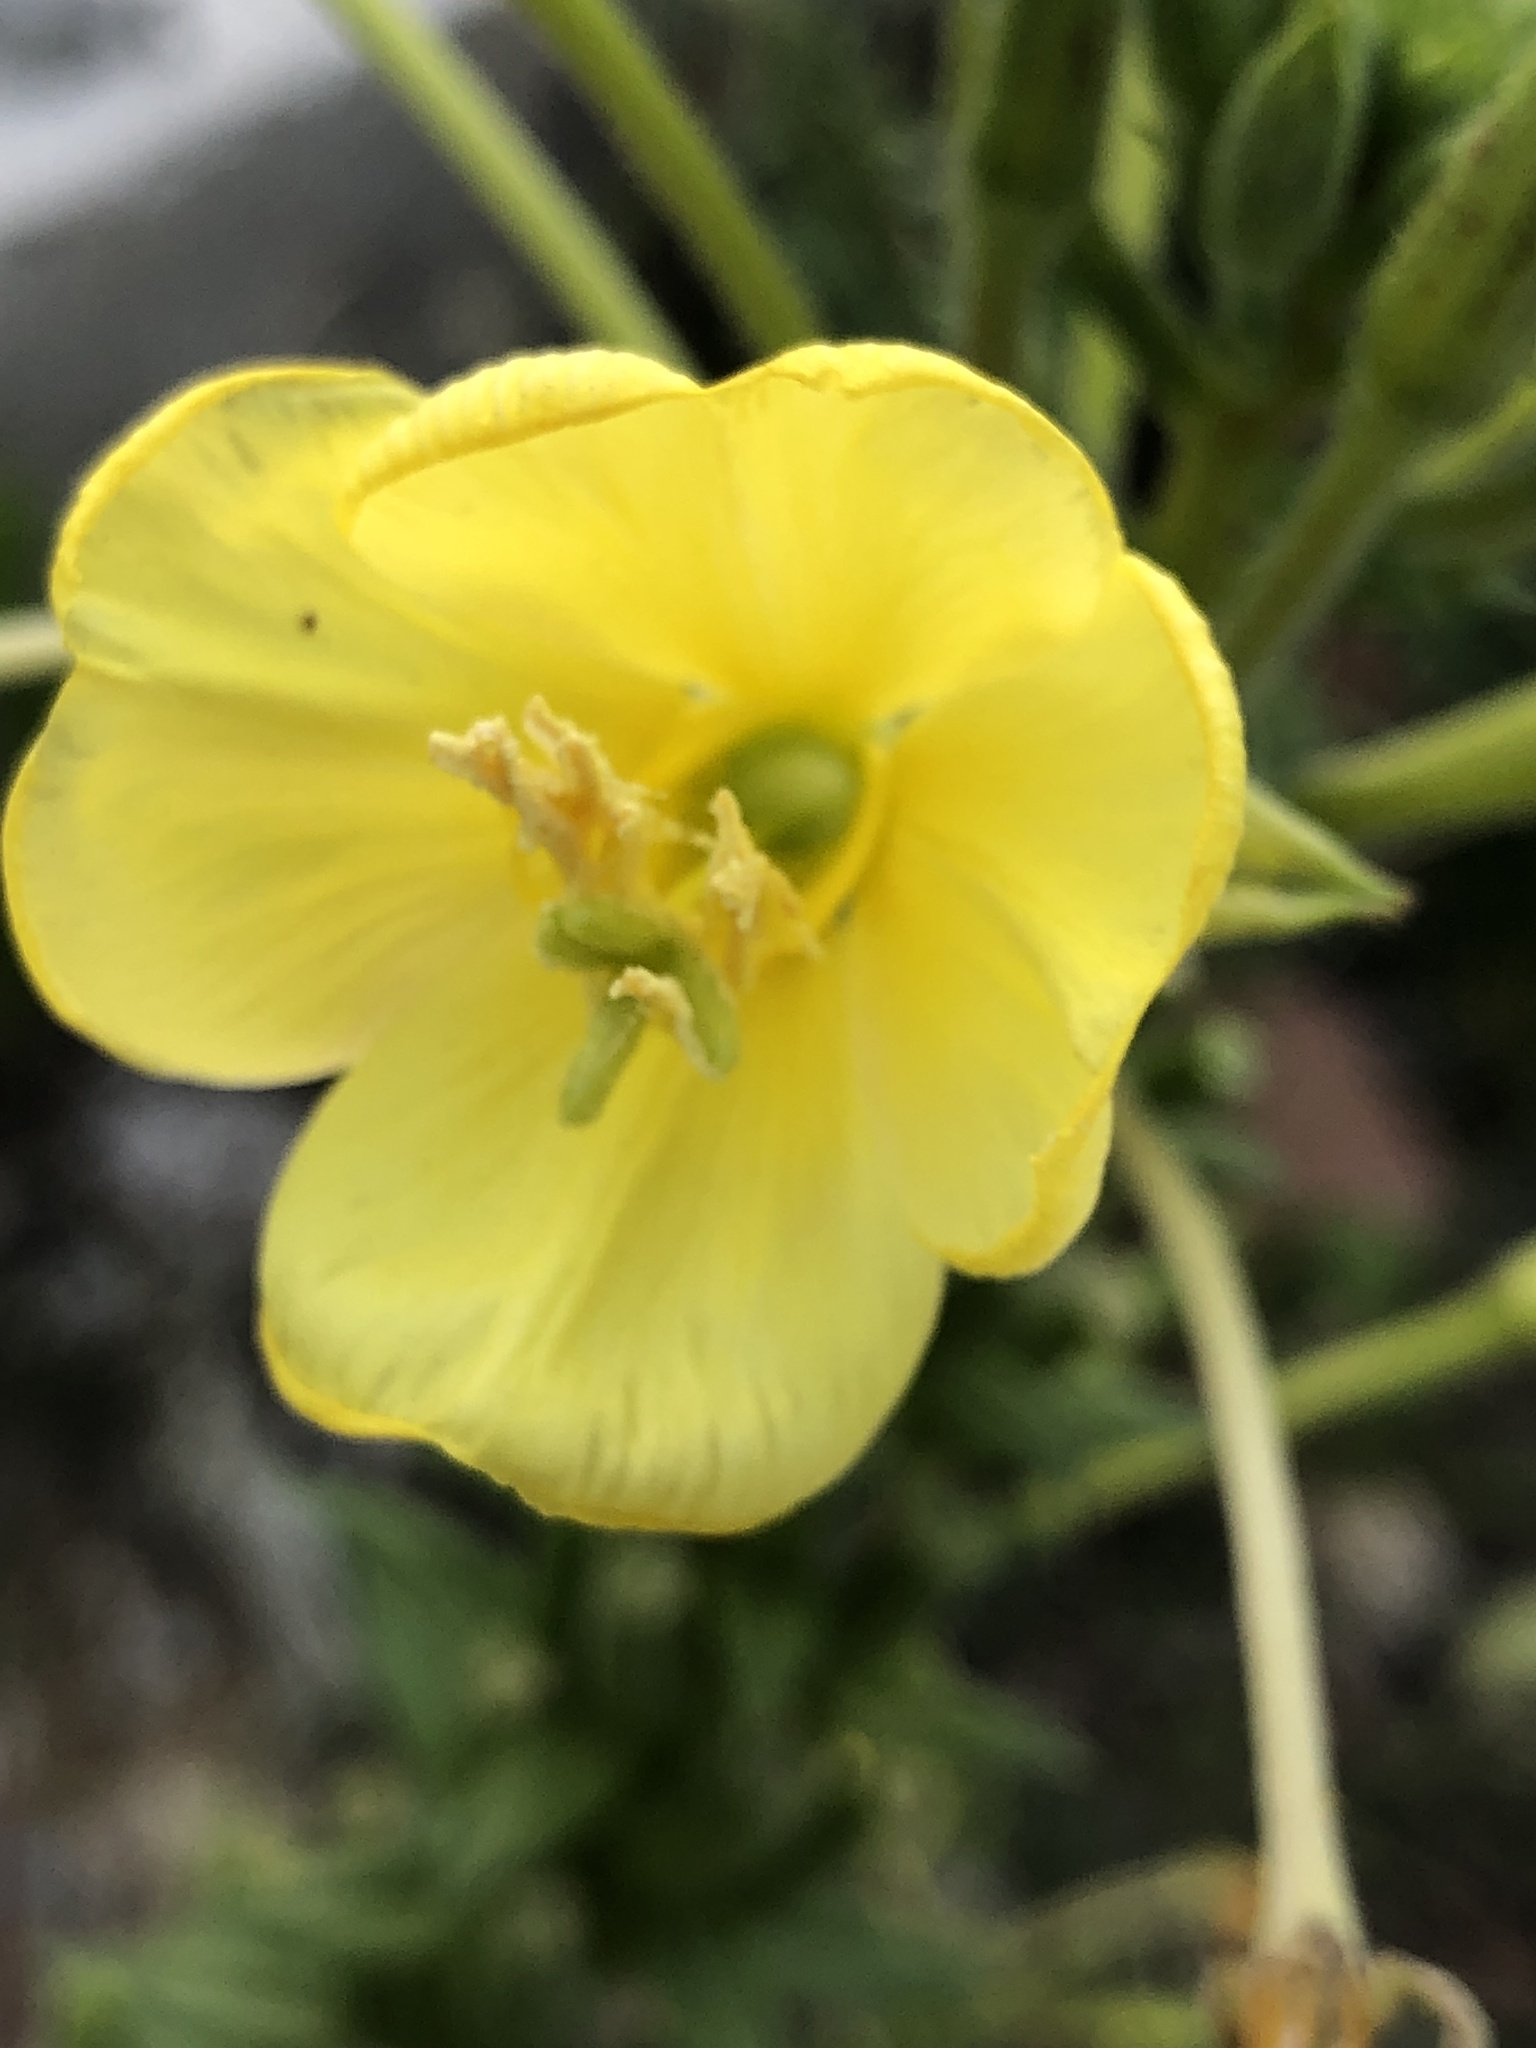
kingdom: Plantae
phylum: Tracheophyta
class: Magnoliopsida
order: Myrtales
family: Onagraceae
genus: Oenothera
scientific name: Oenothera biennis
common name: Common evening-primrose
